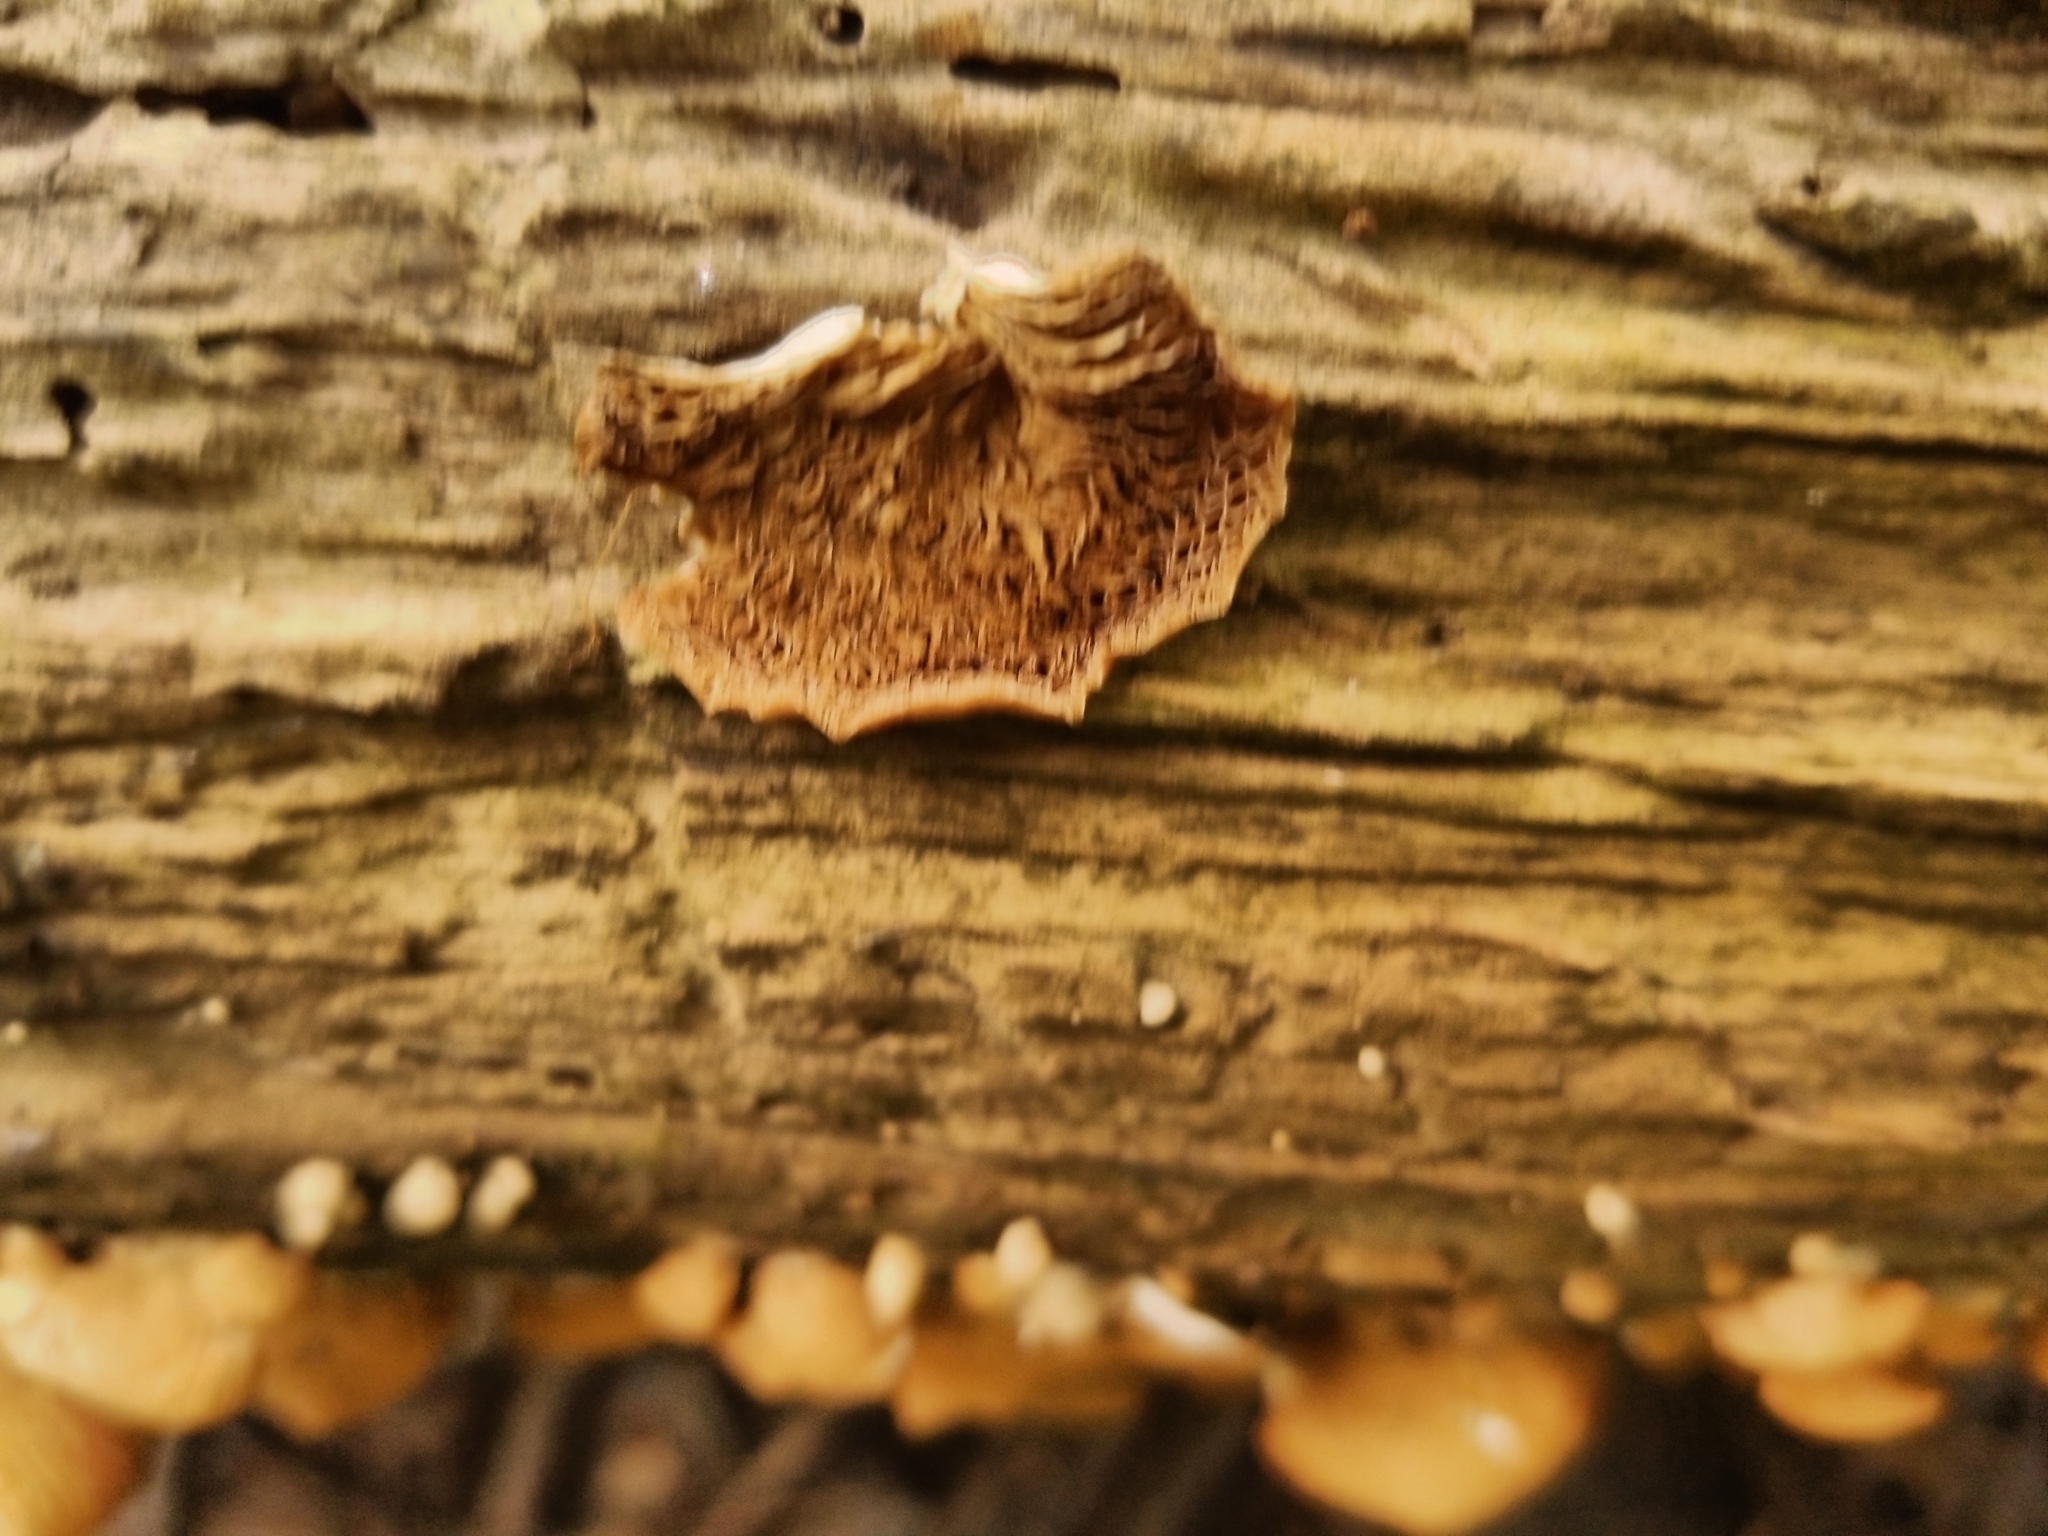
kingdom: Fungi
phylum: Basidiomycota
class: Agaricomycetes
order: Agaricales
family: Crepidotaceae
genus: Crepidotus
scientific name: Crepidotus applanatus
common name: Flat crep
